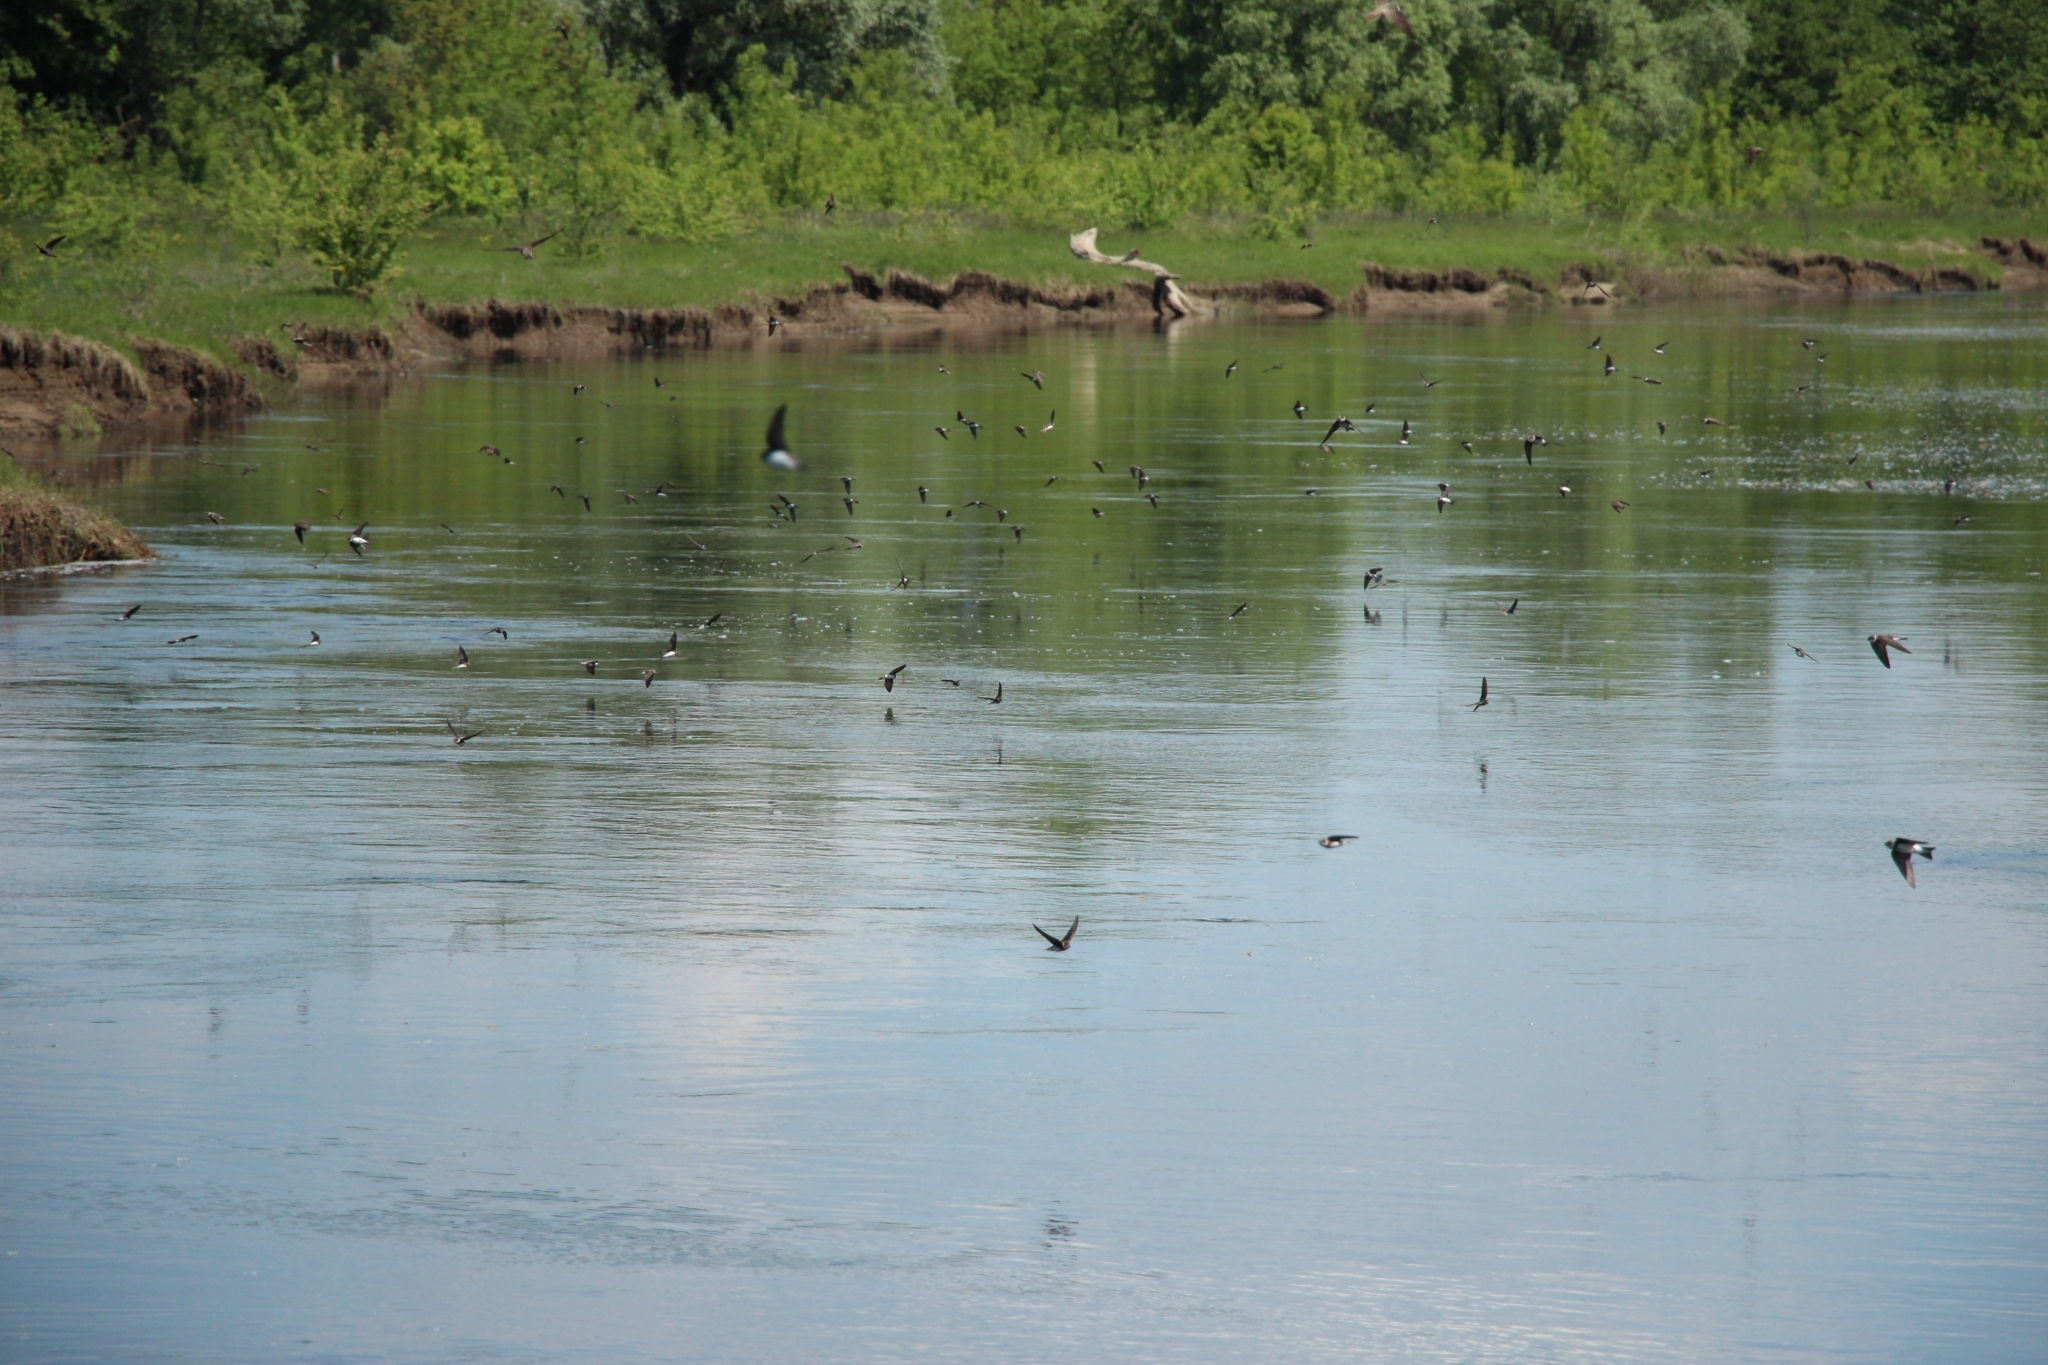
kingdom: Animalia
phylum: Chordata
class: Aves
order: Passeriformes
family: Hirundinidae
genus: Riparia
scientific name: Riparia riparia
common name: Sand martin
